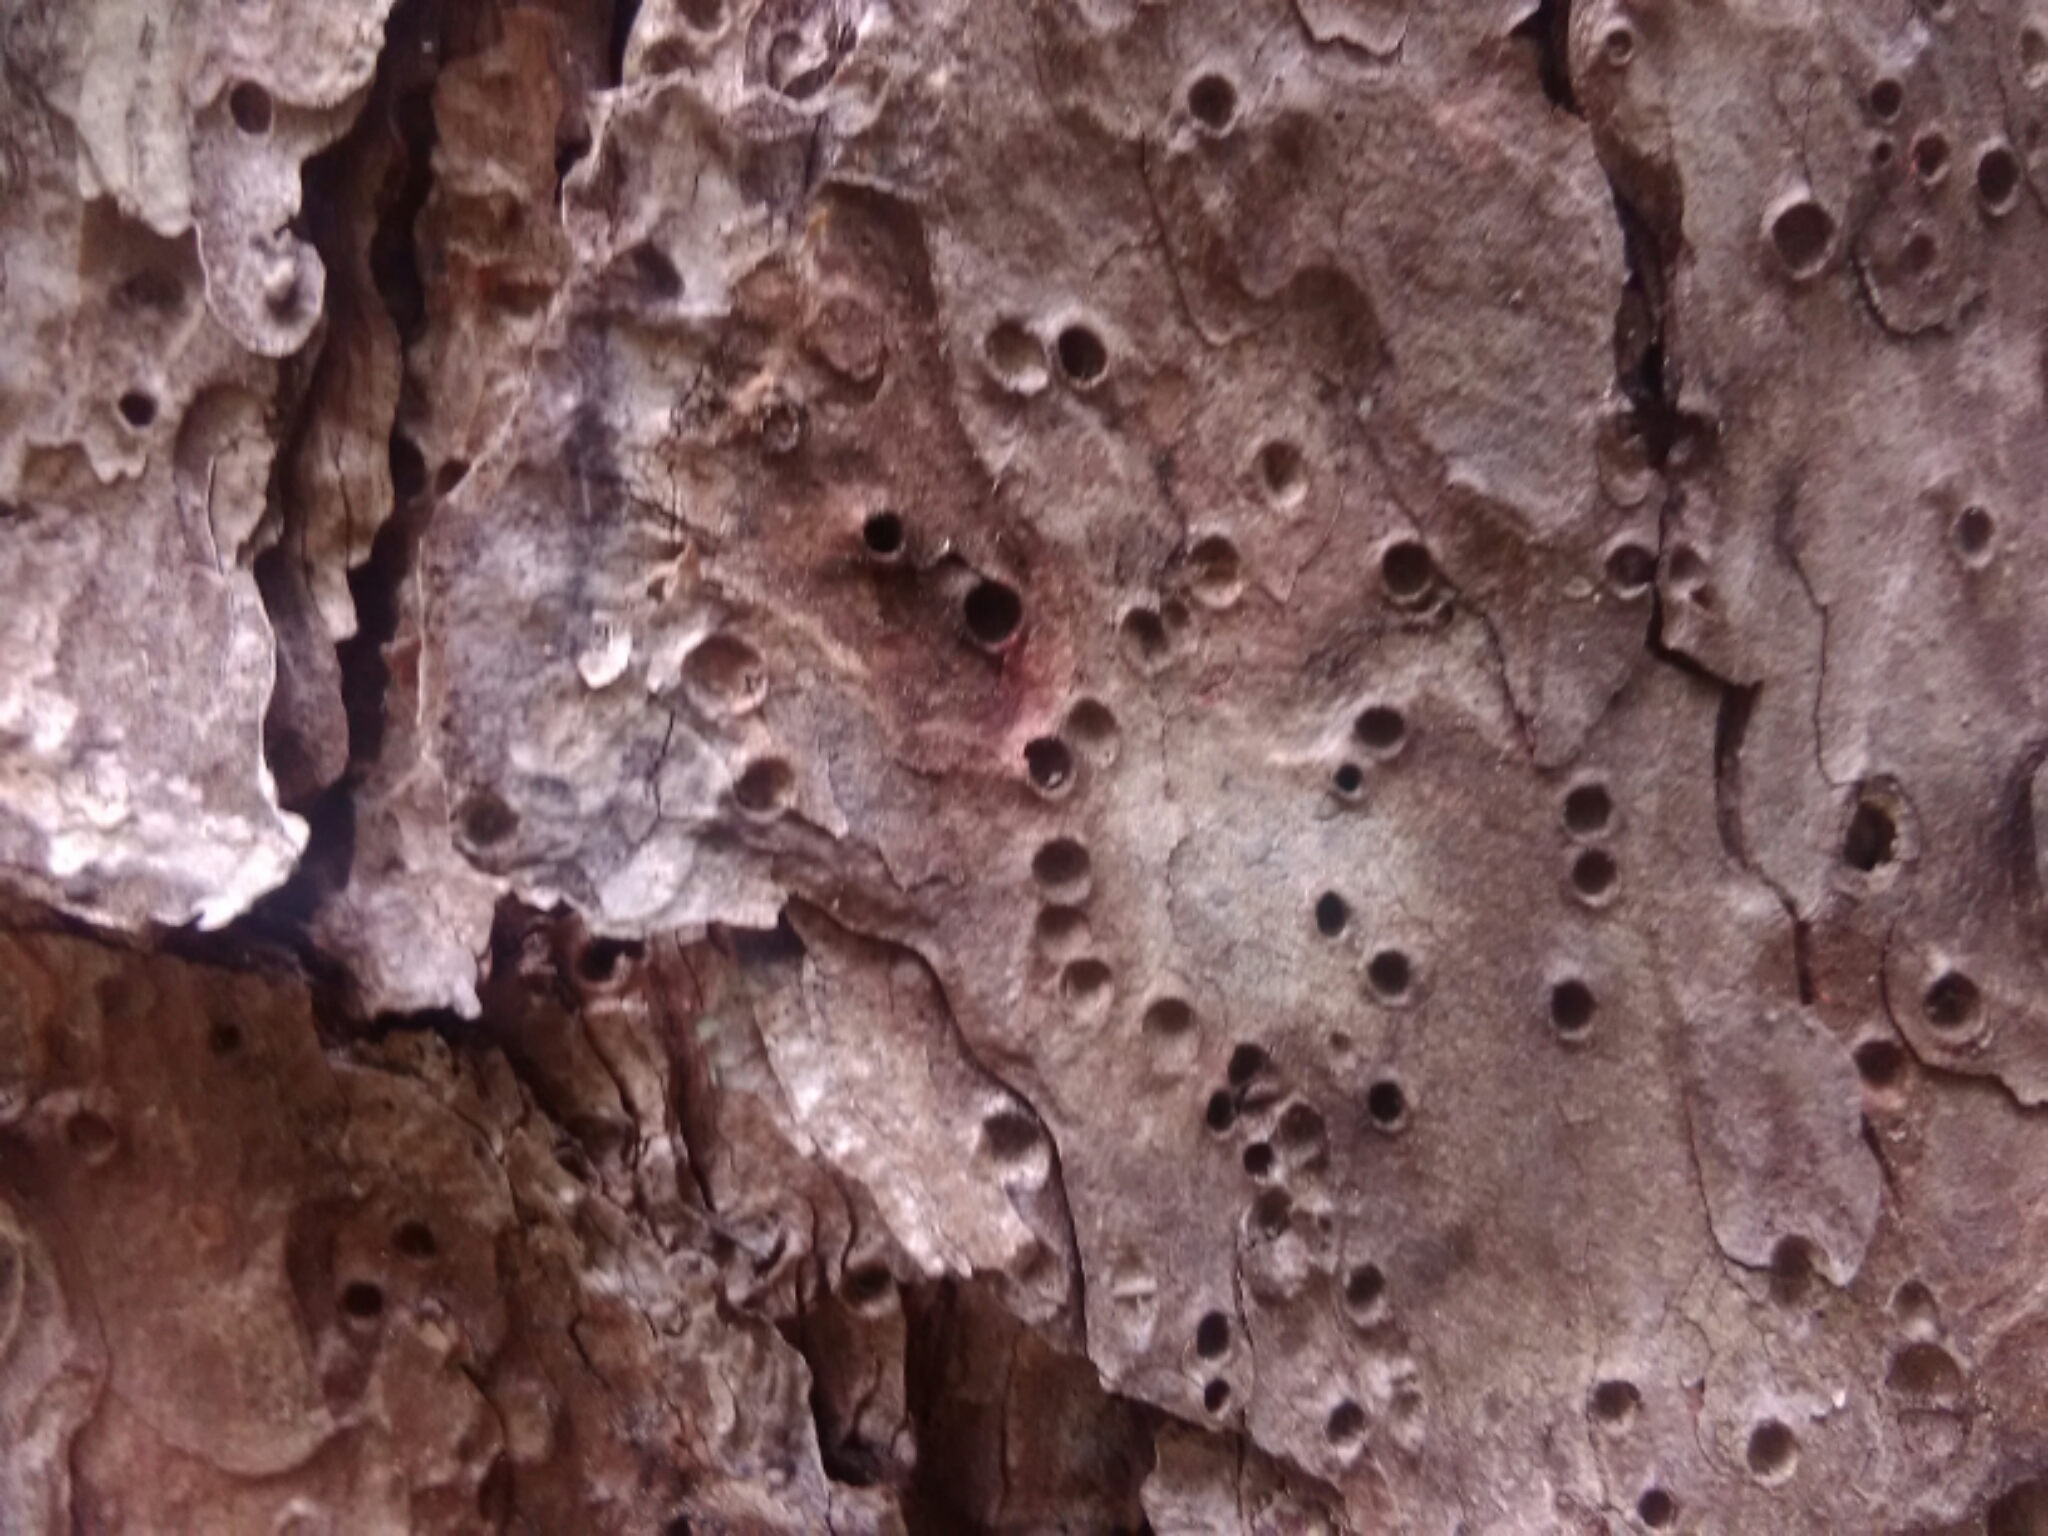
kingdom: Plantae
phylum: Tracheophyta
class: Pinopsida
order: Pinales
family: Pinaceae
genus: Pinus
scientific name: Pinus echinata
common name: Shortleaf pine
